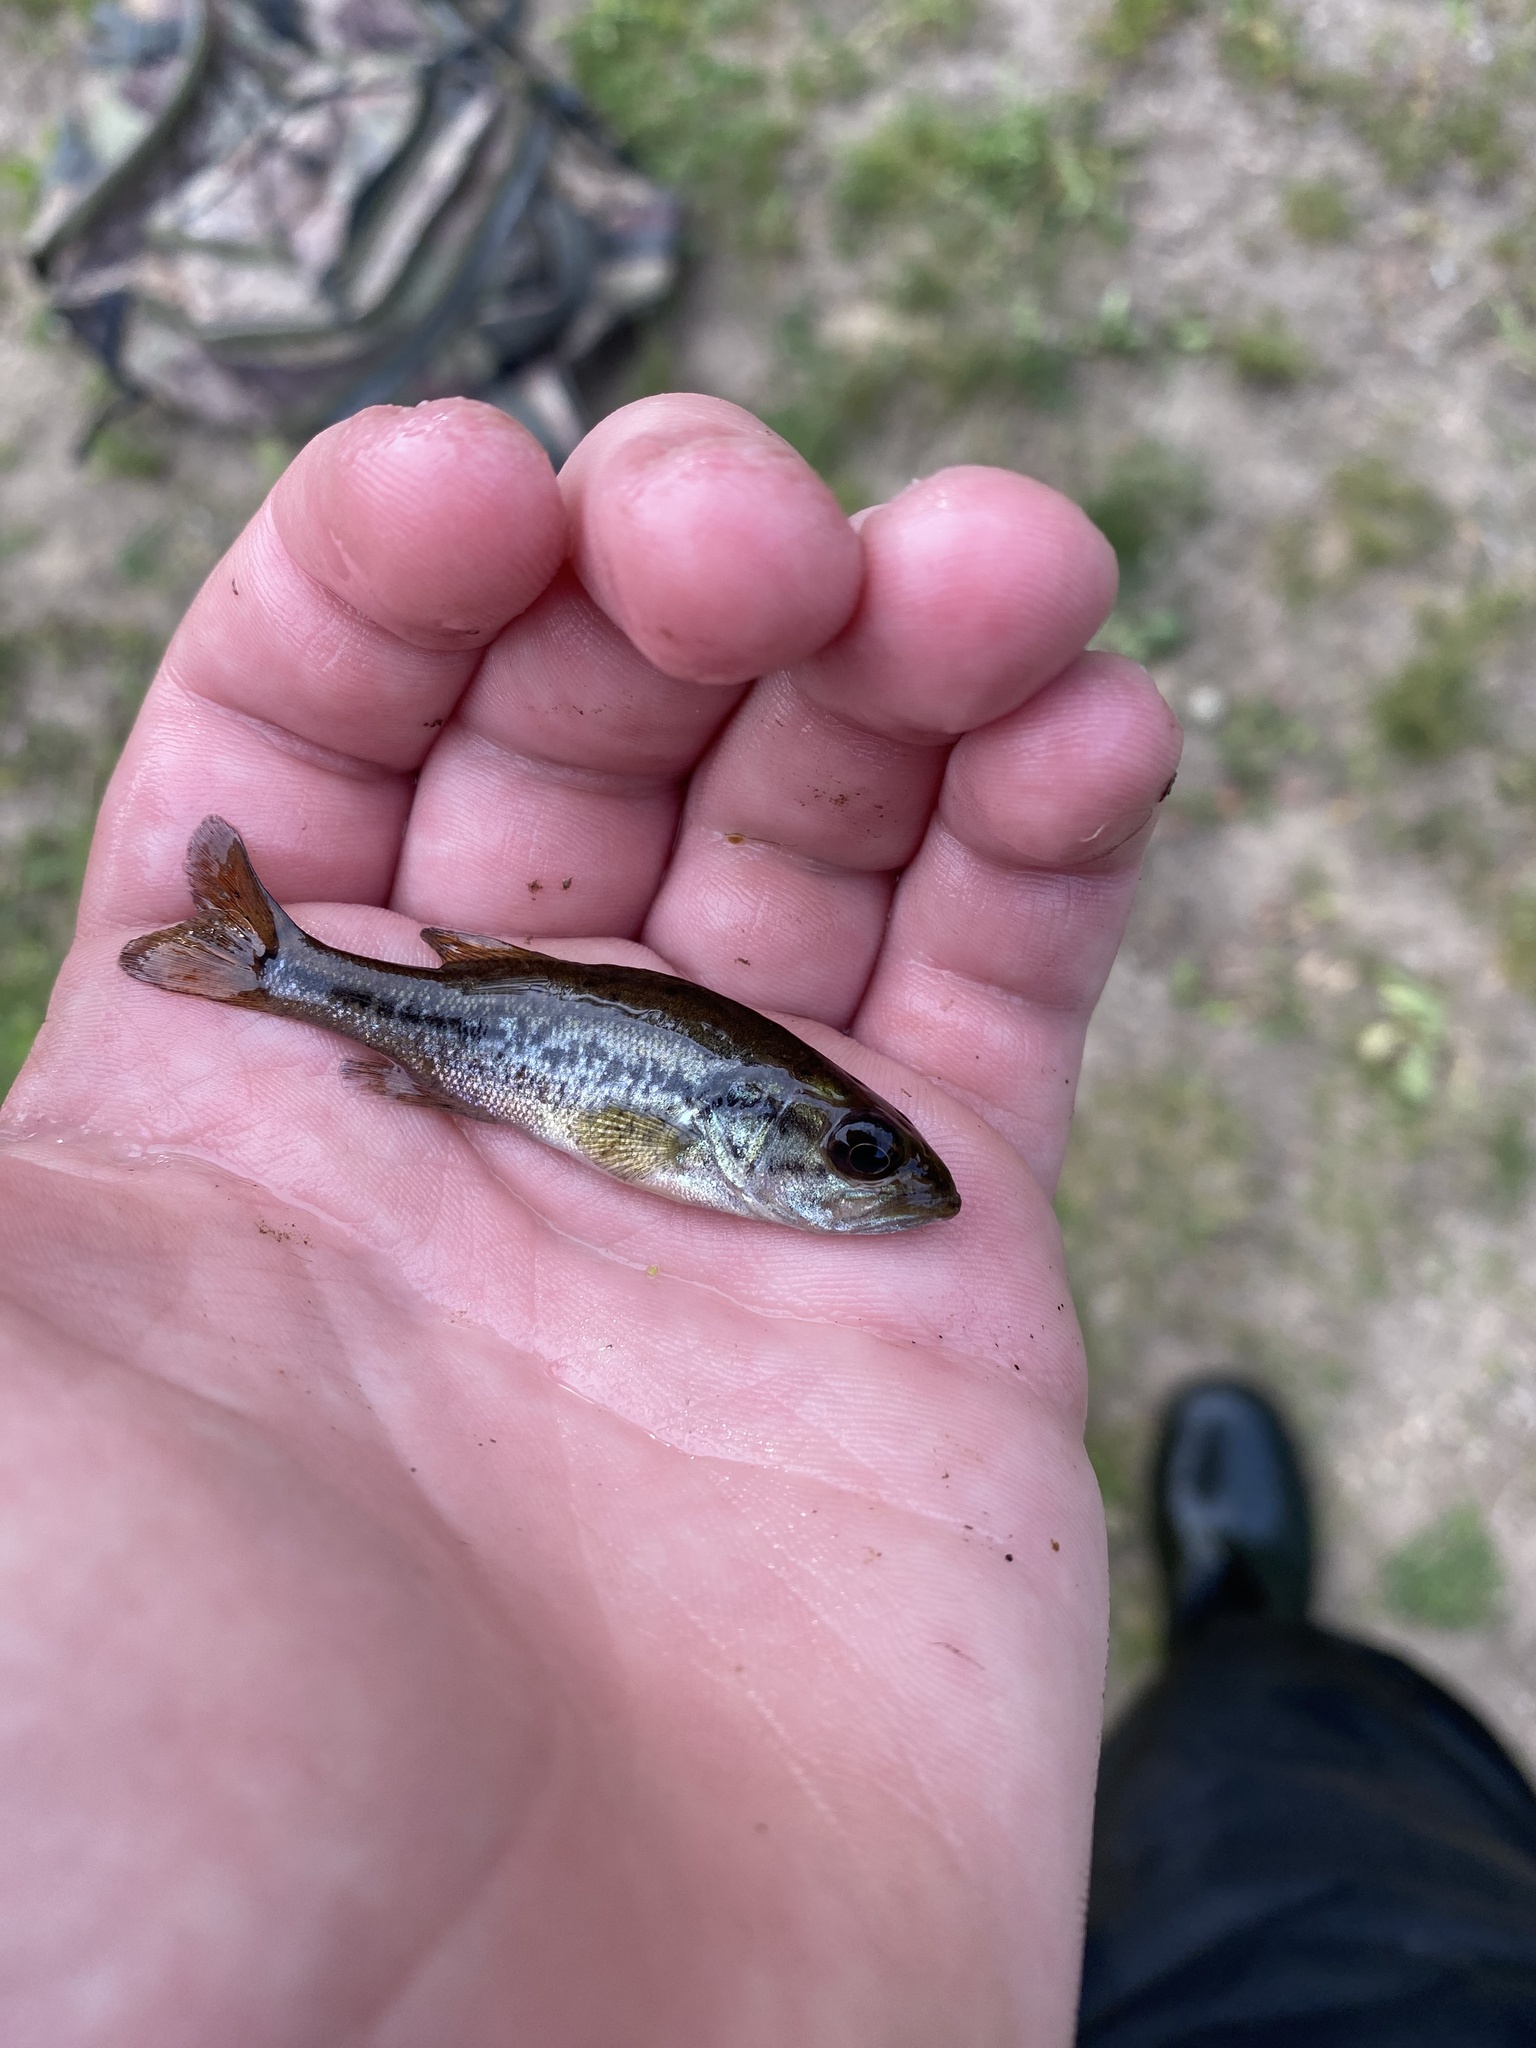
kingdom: Animalia
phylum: Chordata
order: Perciformes
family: Centrarchidae
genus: Micropterus
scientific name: Micropterus
